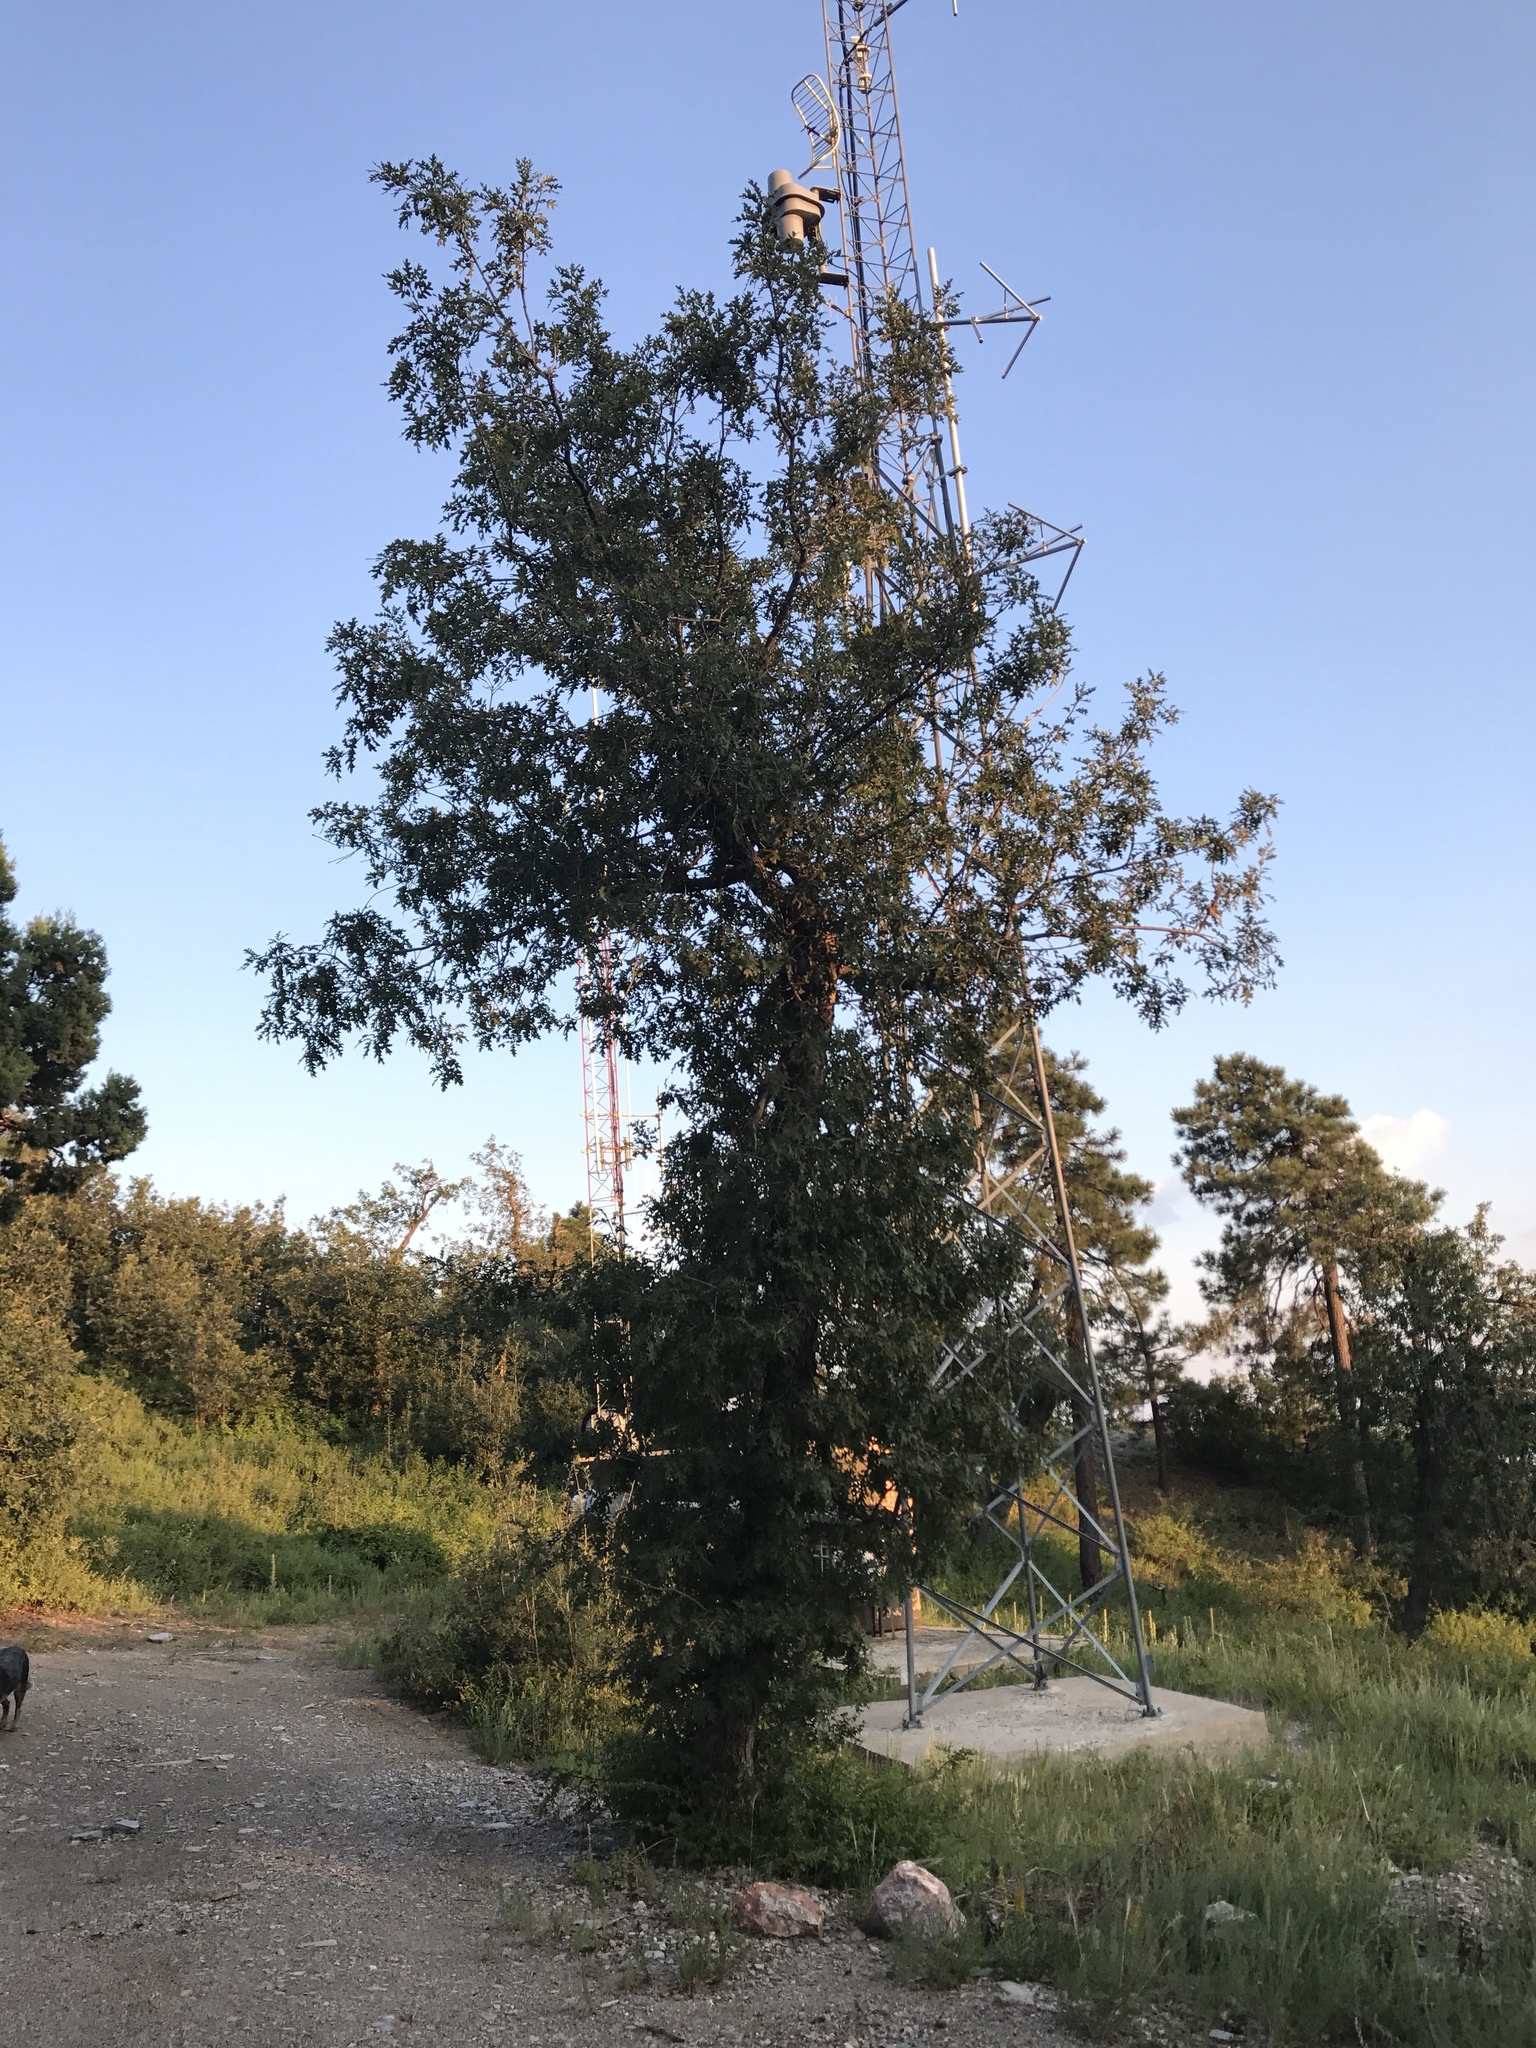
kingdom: Plantae
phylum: Tracheophyta
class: Magnoliopsida
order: Fagales
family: Fagaceae
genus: Quercus
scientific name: Quercus gambelii
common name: Gambel oak
